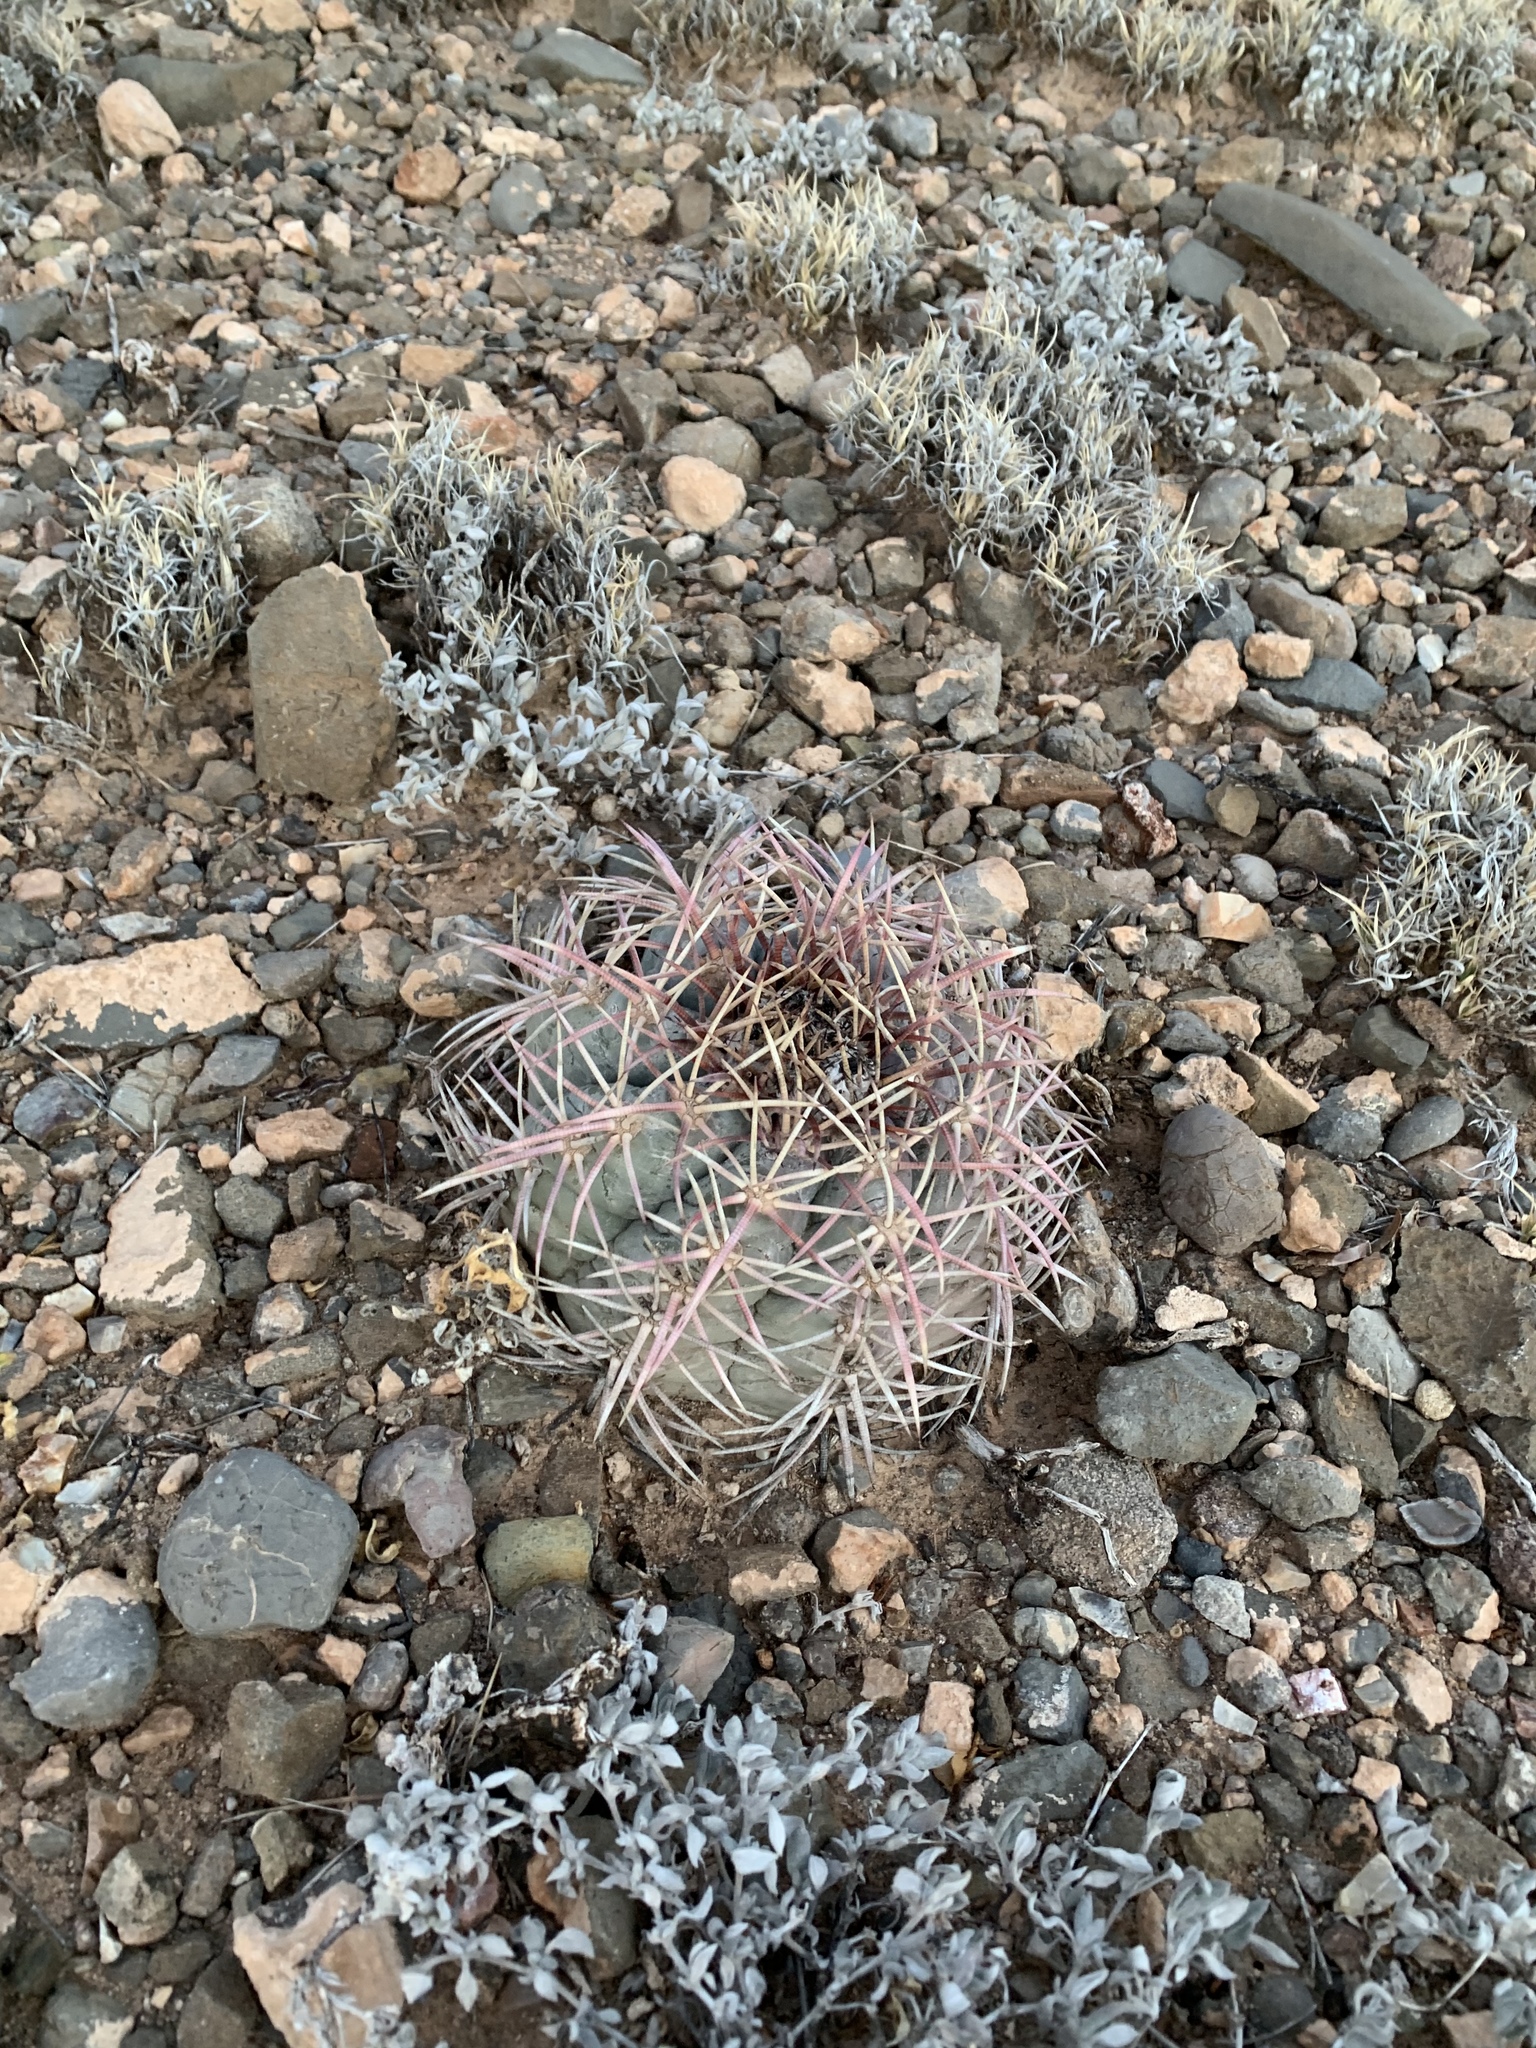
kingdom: Plantae
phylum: Tracheophyta
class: Magnoliopsida
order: Caryophyllales
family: Cactaceae
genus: Echinocactus
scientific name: Echinocactus horizonthalonius
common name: Devilshead
